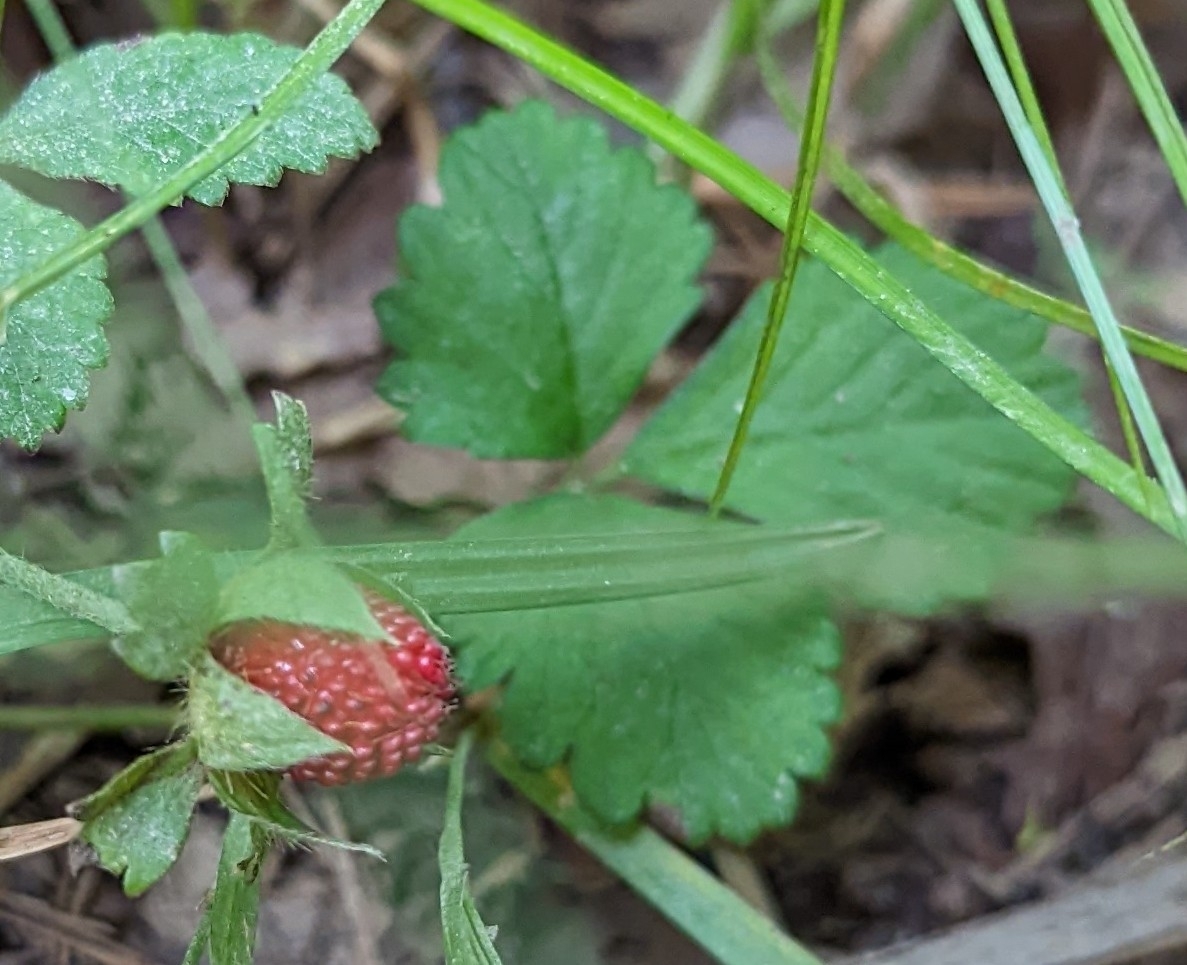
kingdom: Plantae
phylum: Tracheophyta
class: Magnoliopsida
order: Rosales
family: Rosaceae
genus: Potentilla
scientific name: Potentilla indica
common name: Yellow-flowered strawberry
